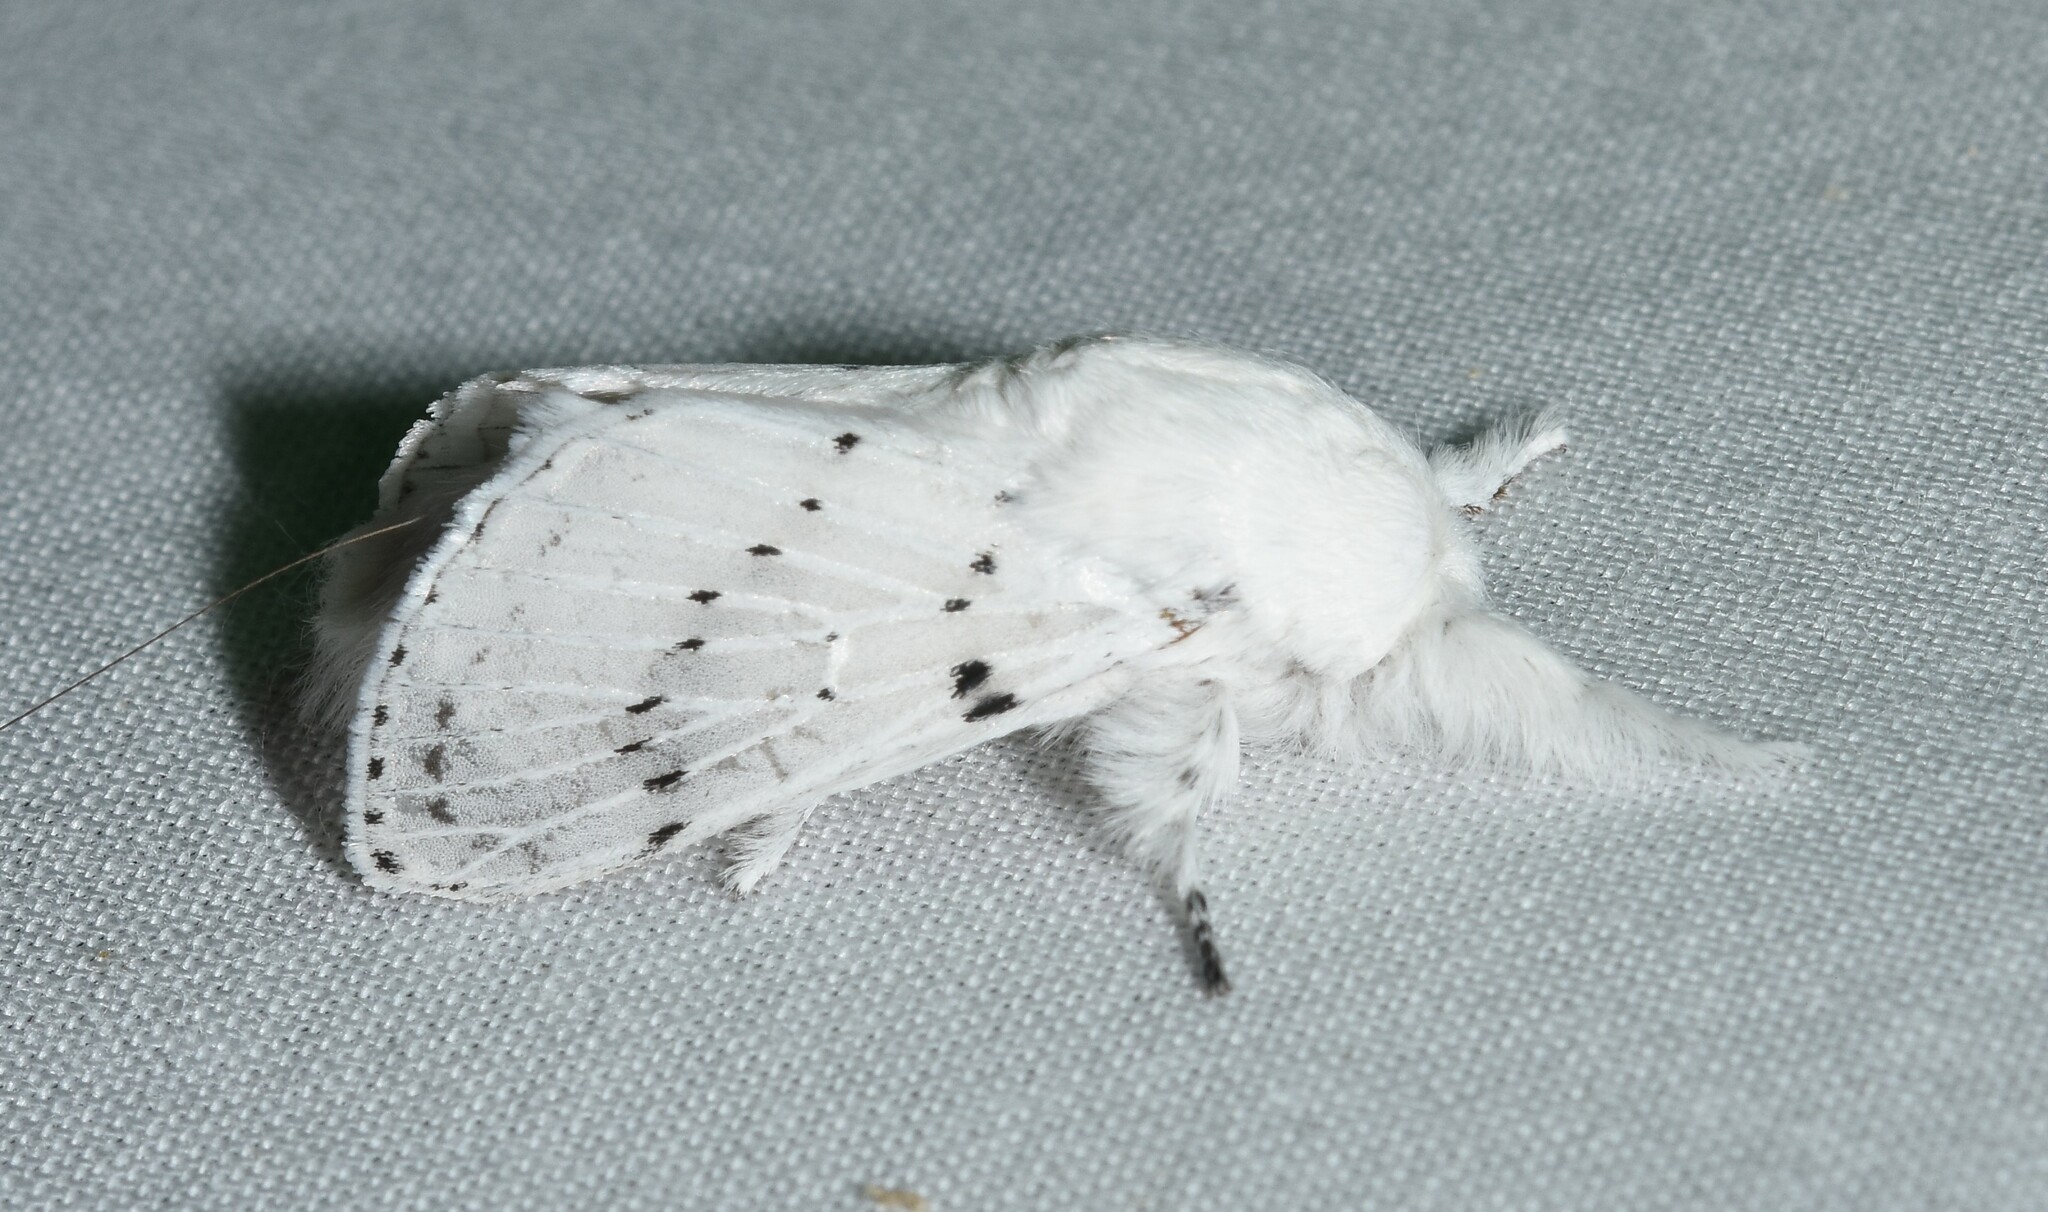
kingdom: Animalia
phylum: Arthropoda
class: Insecta
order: Lepidoptera
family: Lasiocampidae
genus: Artace
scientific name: Artace cribrarius
